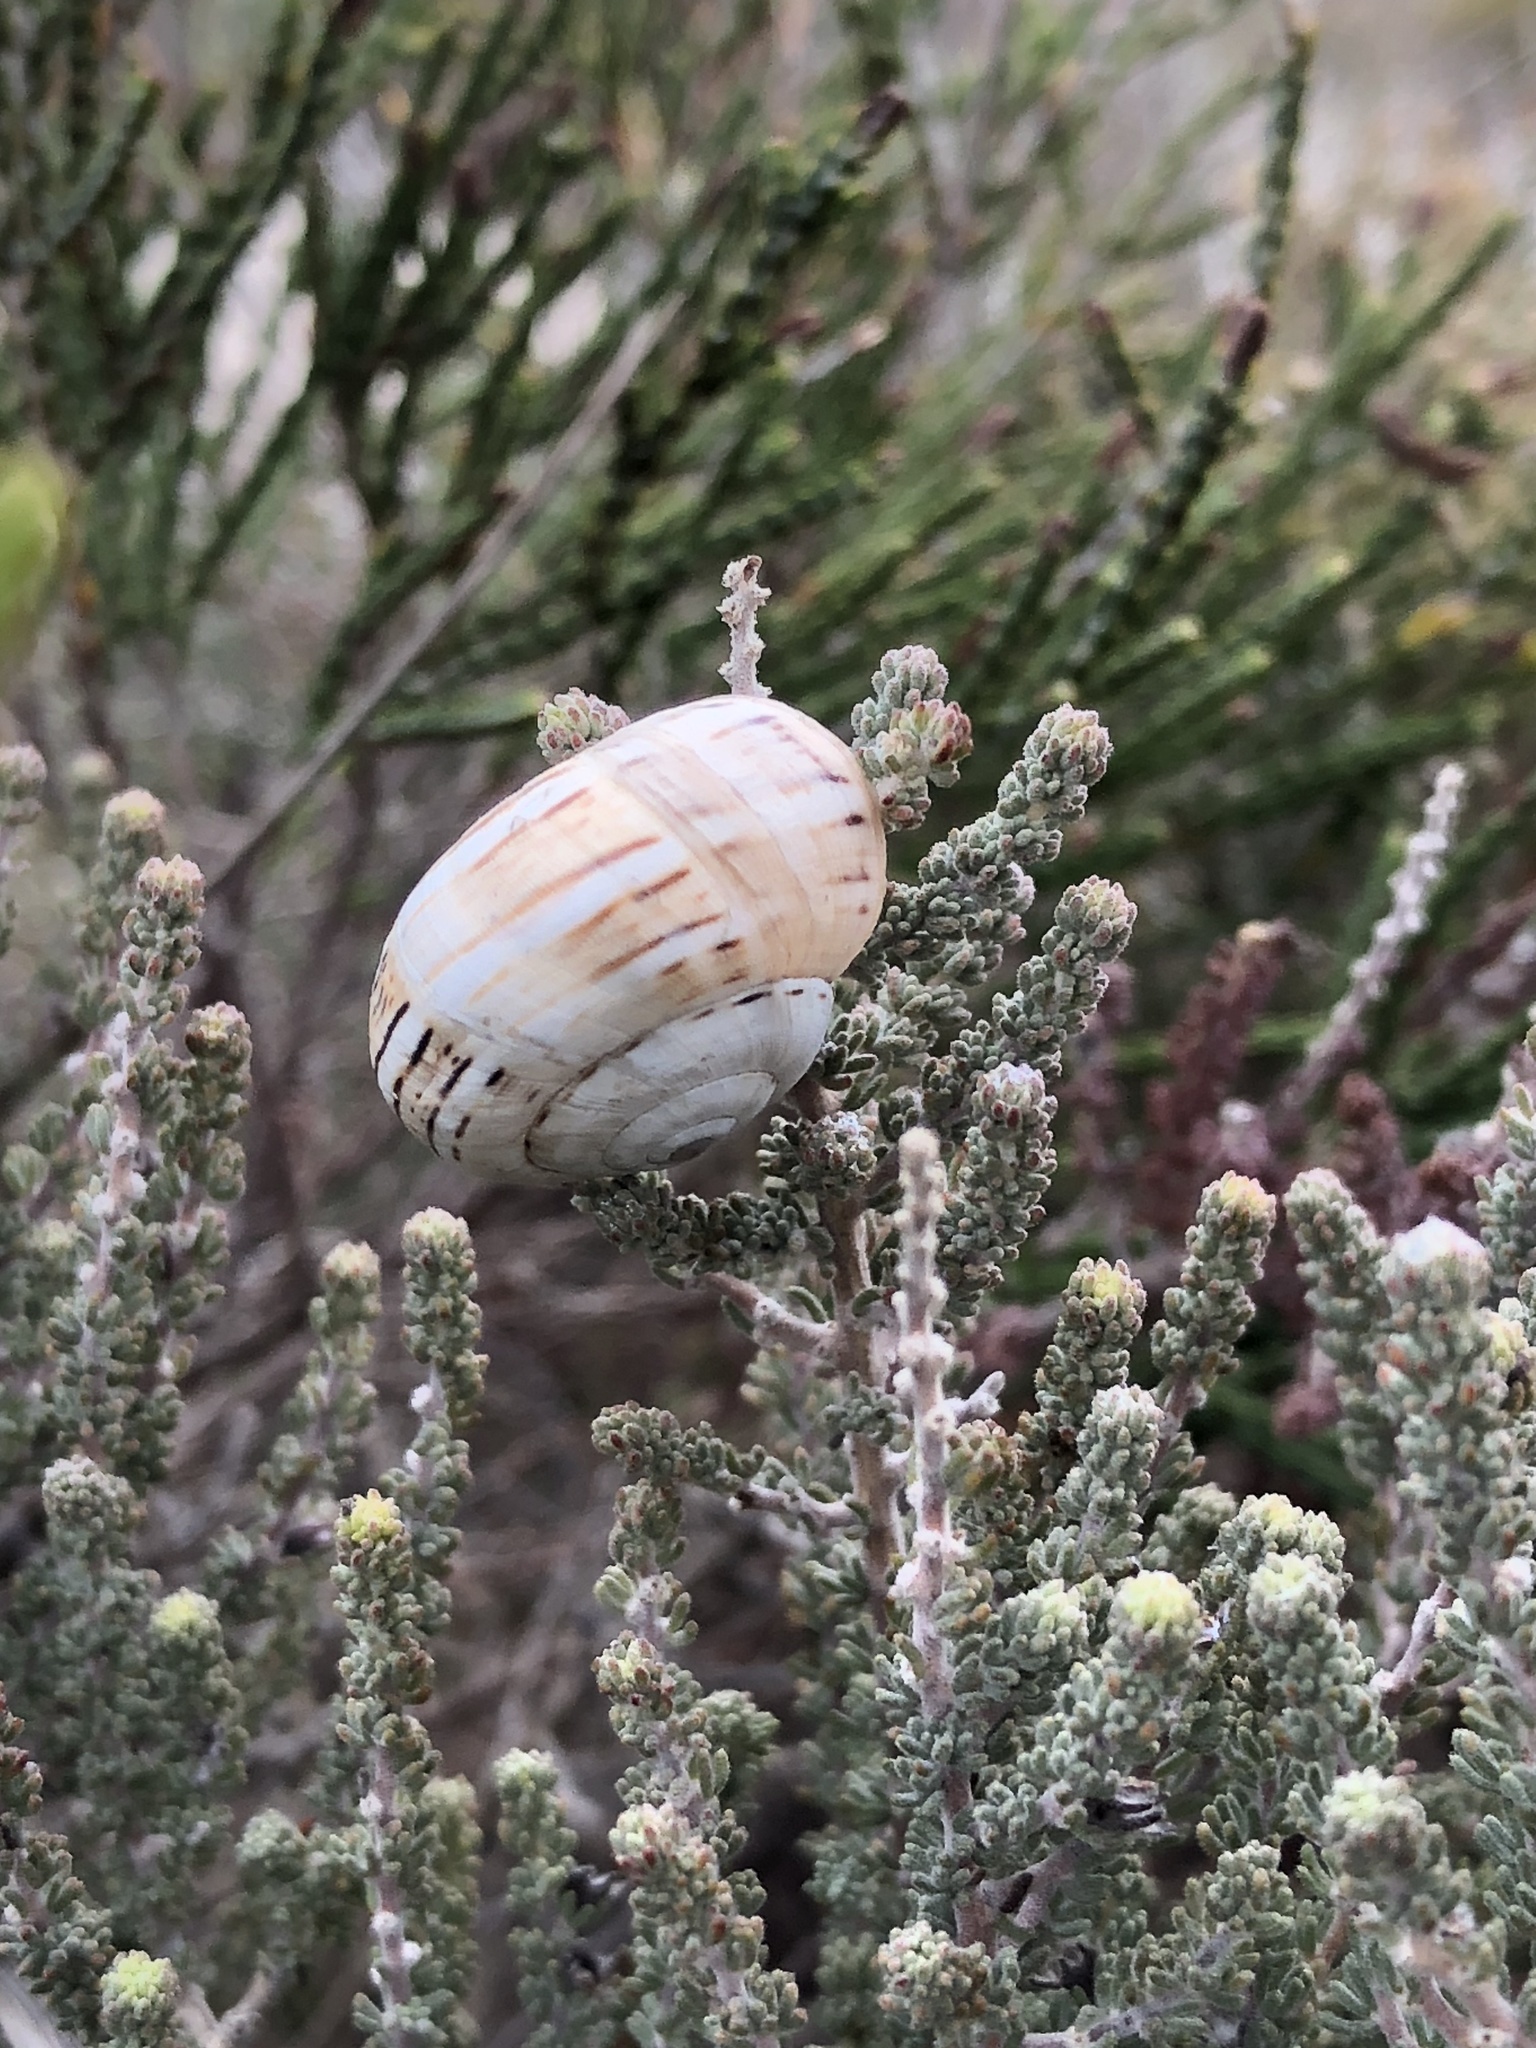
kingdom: Animalia
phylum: Mollusca
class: Gastropoda
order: Stylommatophora
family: Helicidae
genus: Theba
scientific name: Theba pisana
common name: White snail
